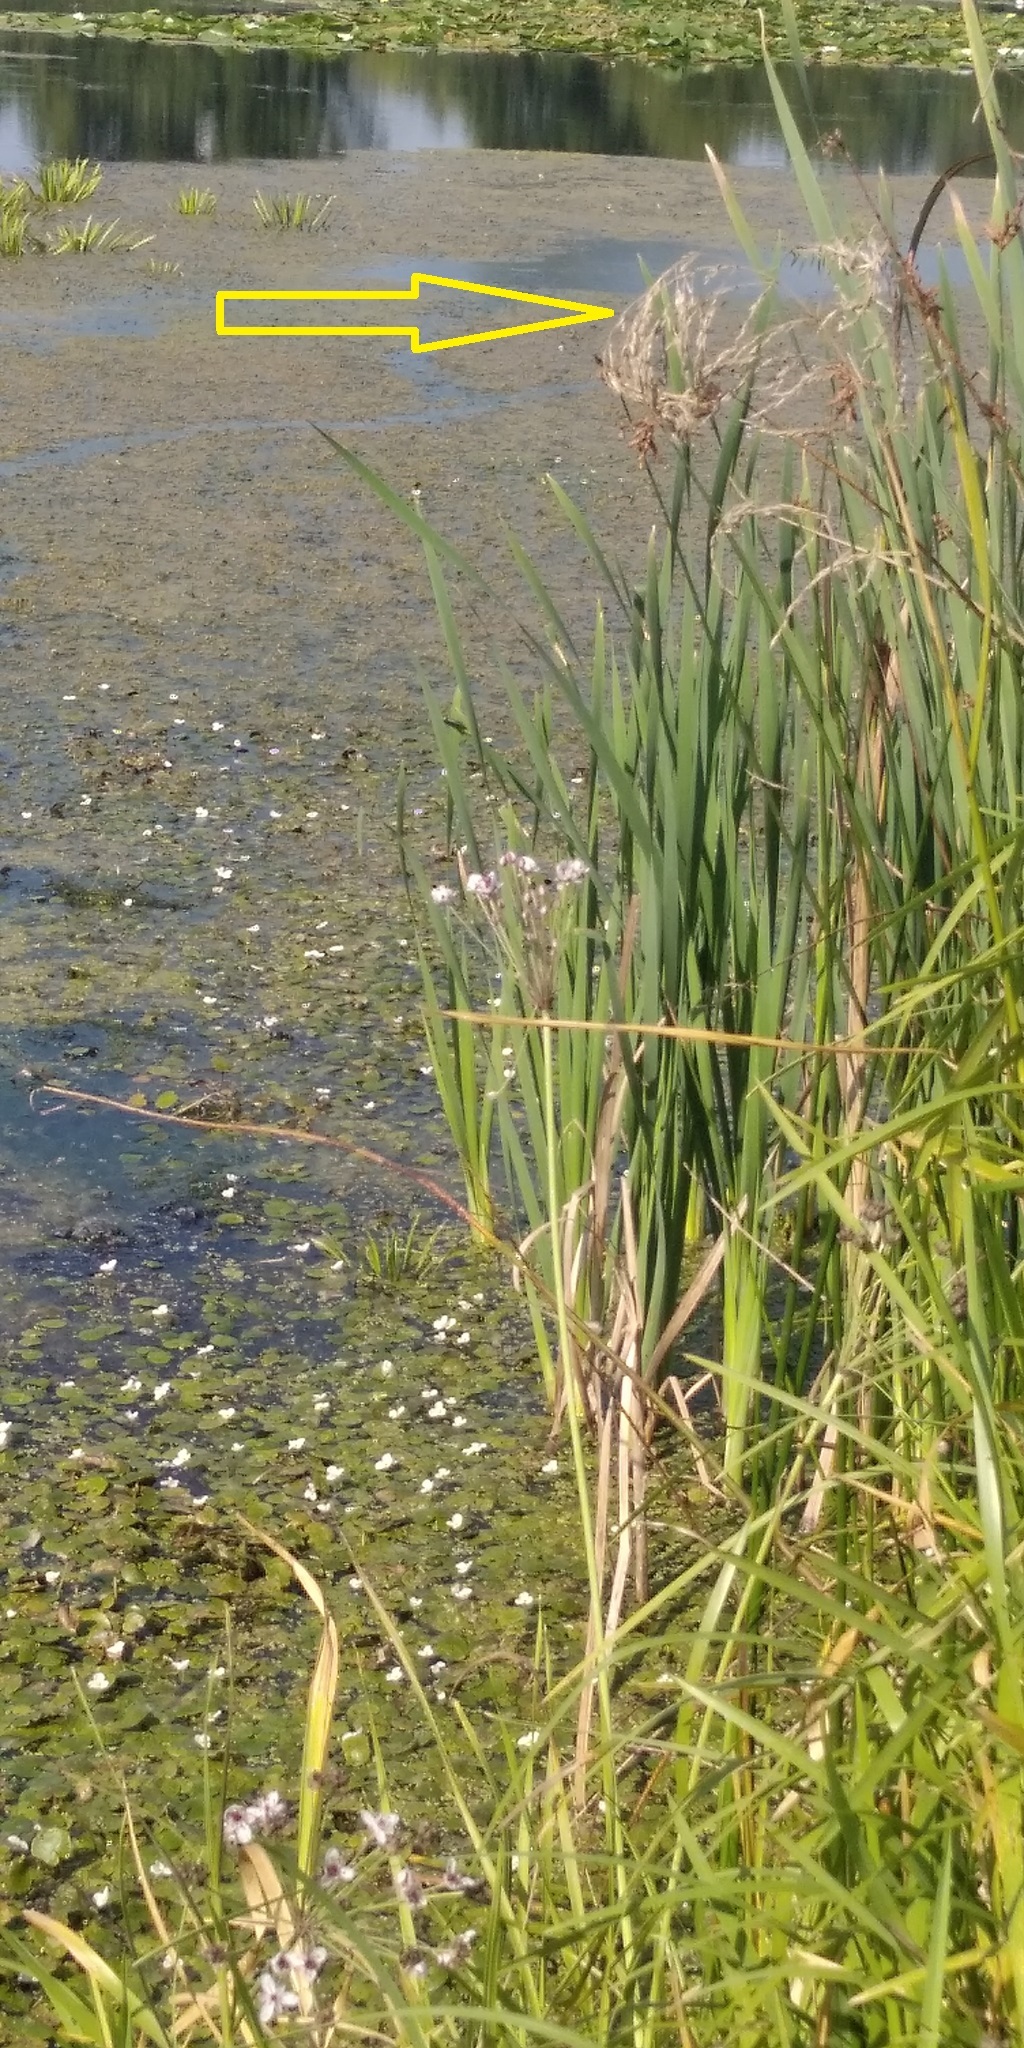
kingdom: Plantae
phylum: Tracheophyta
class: Liliopsida
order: Poales
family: Poaceae
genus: Glyceria
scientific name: Glyceria maxima
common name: Reed mannagrass
